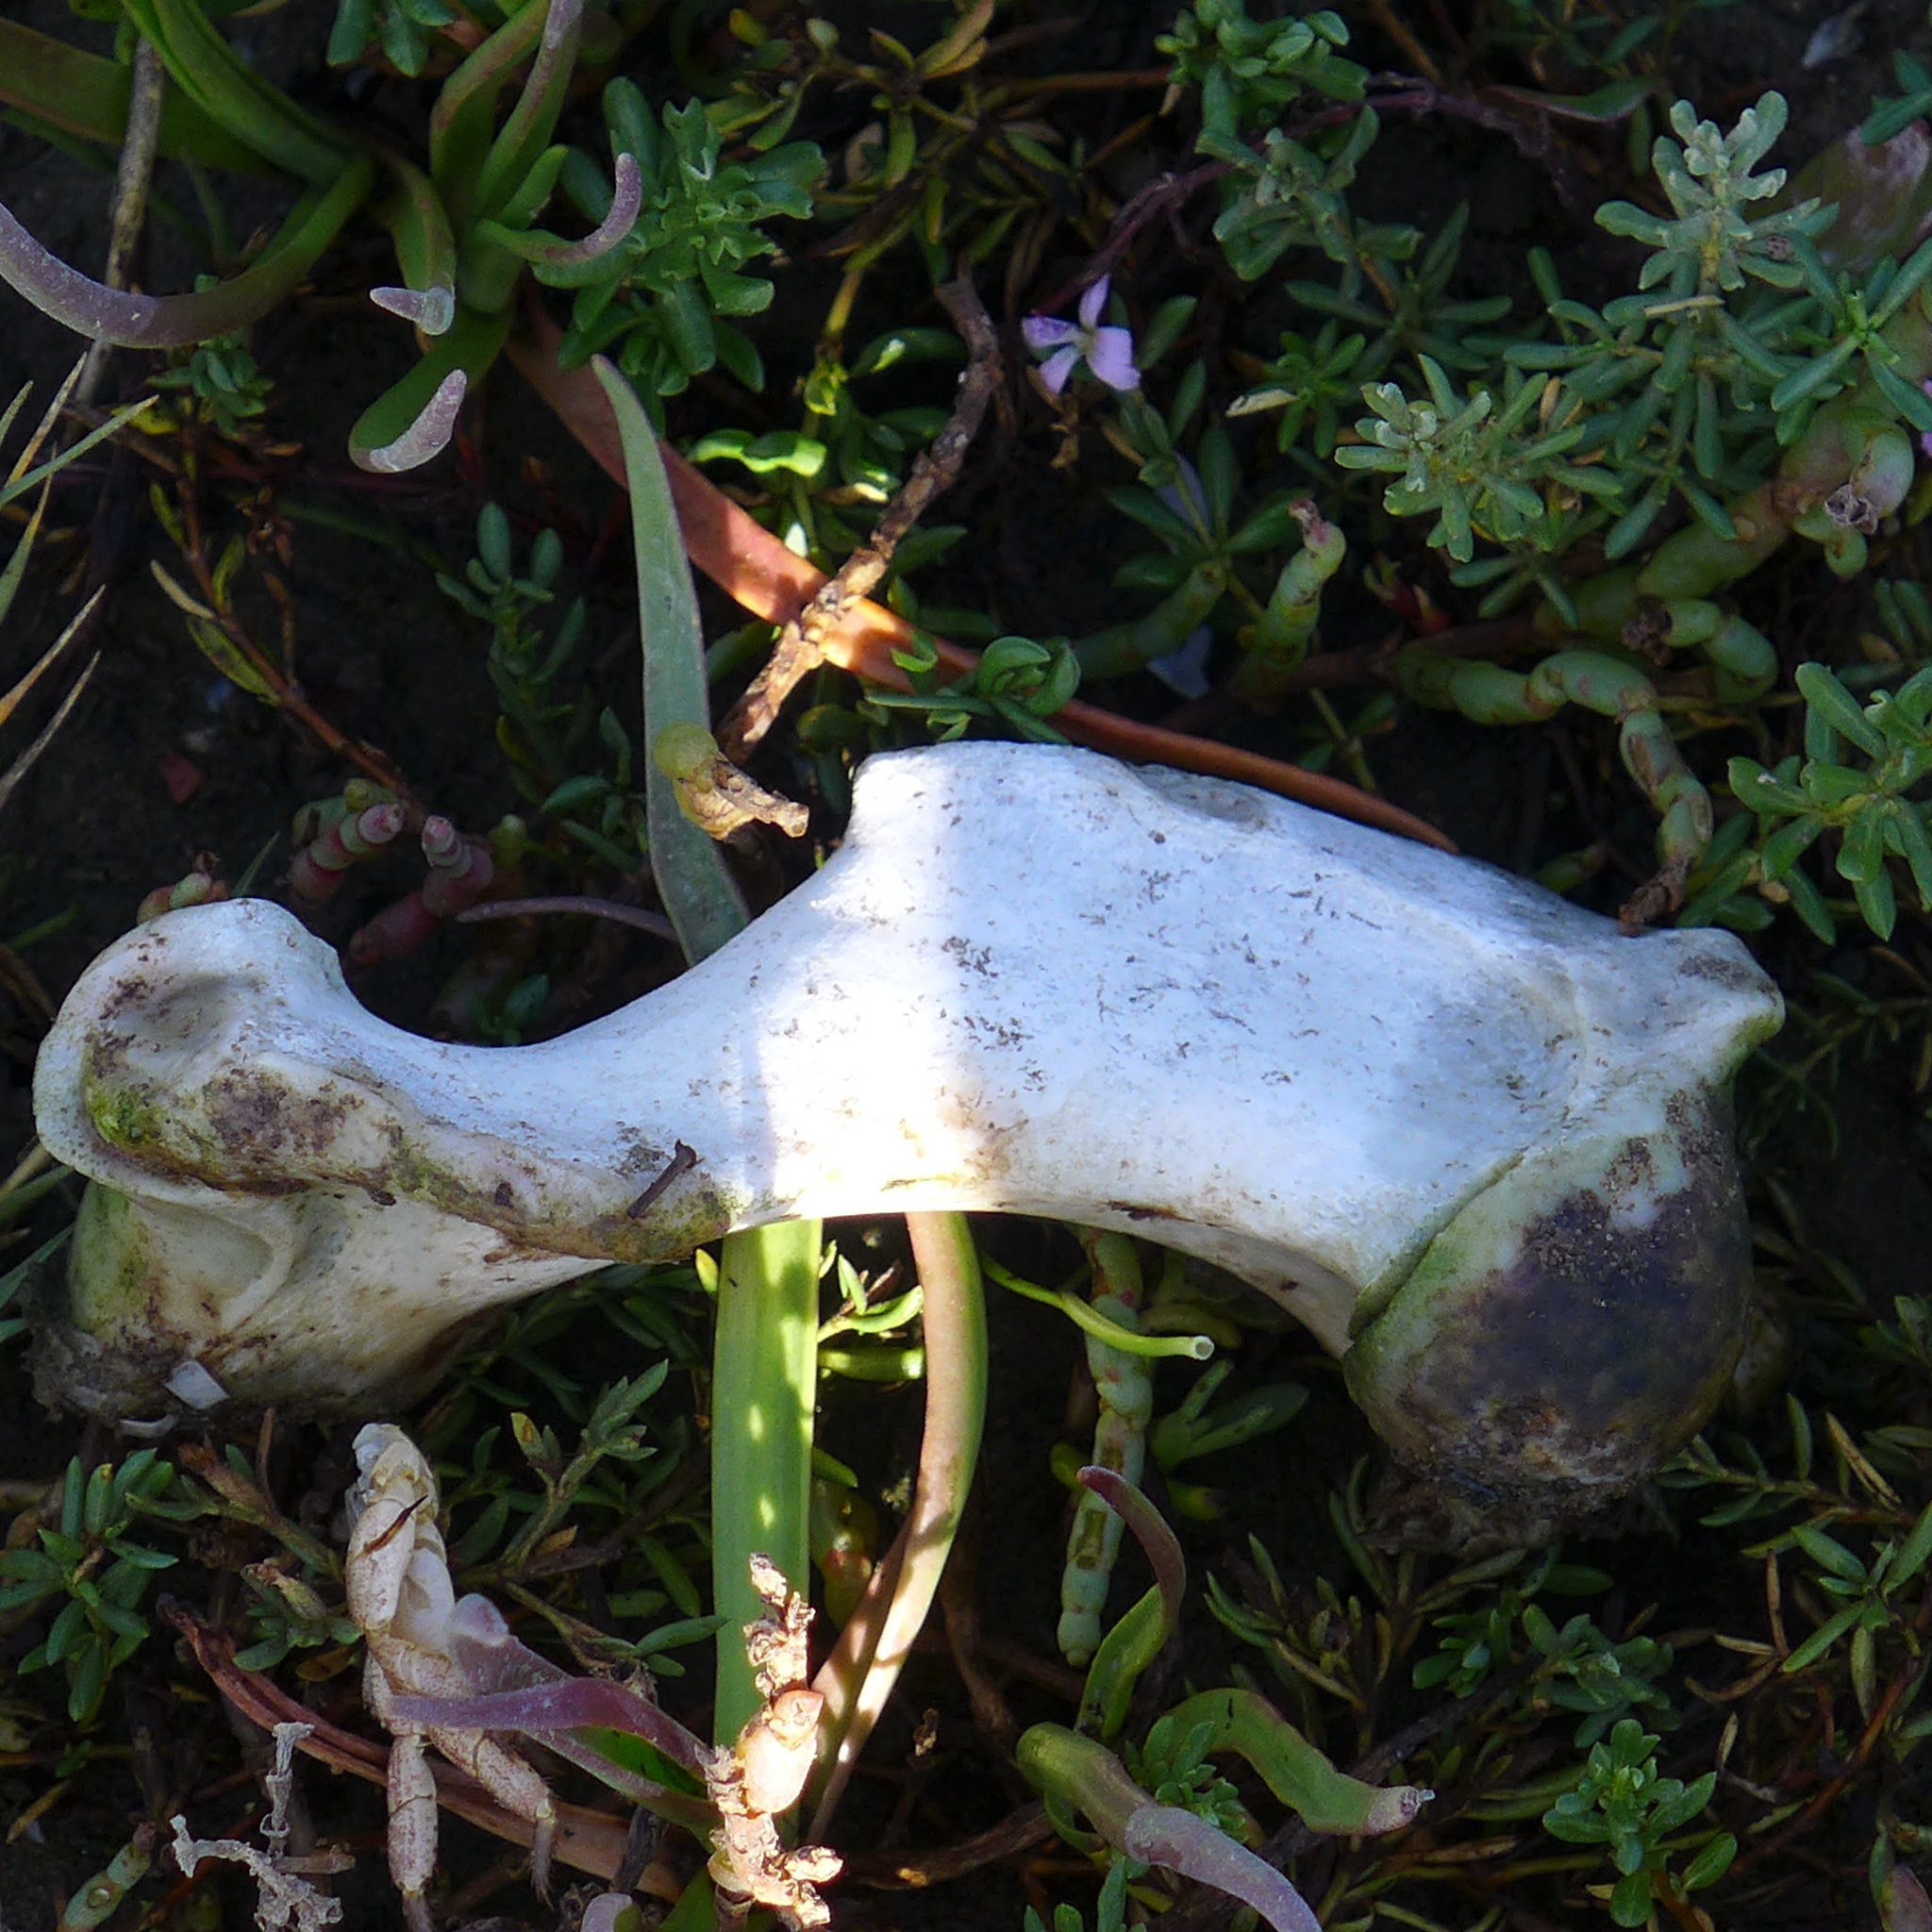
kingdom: Animalia
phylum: Chordata
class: Mammalia
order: Carnivora
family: Otariidae
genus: Zalophus
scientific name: Zalophus californianus
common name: California sea lion
